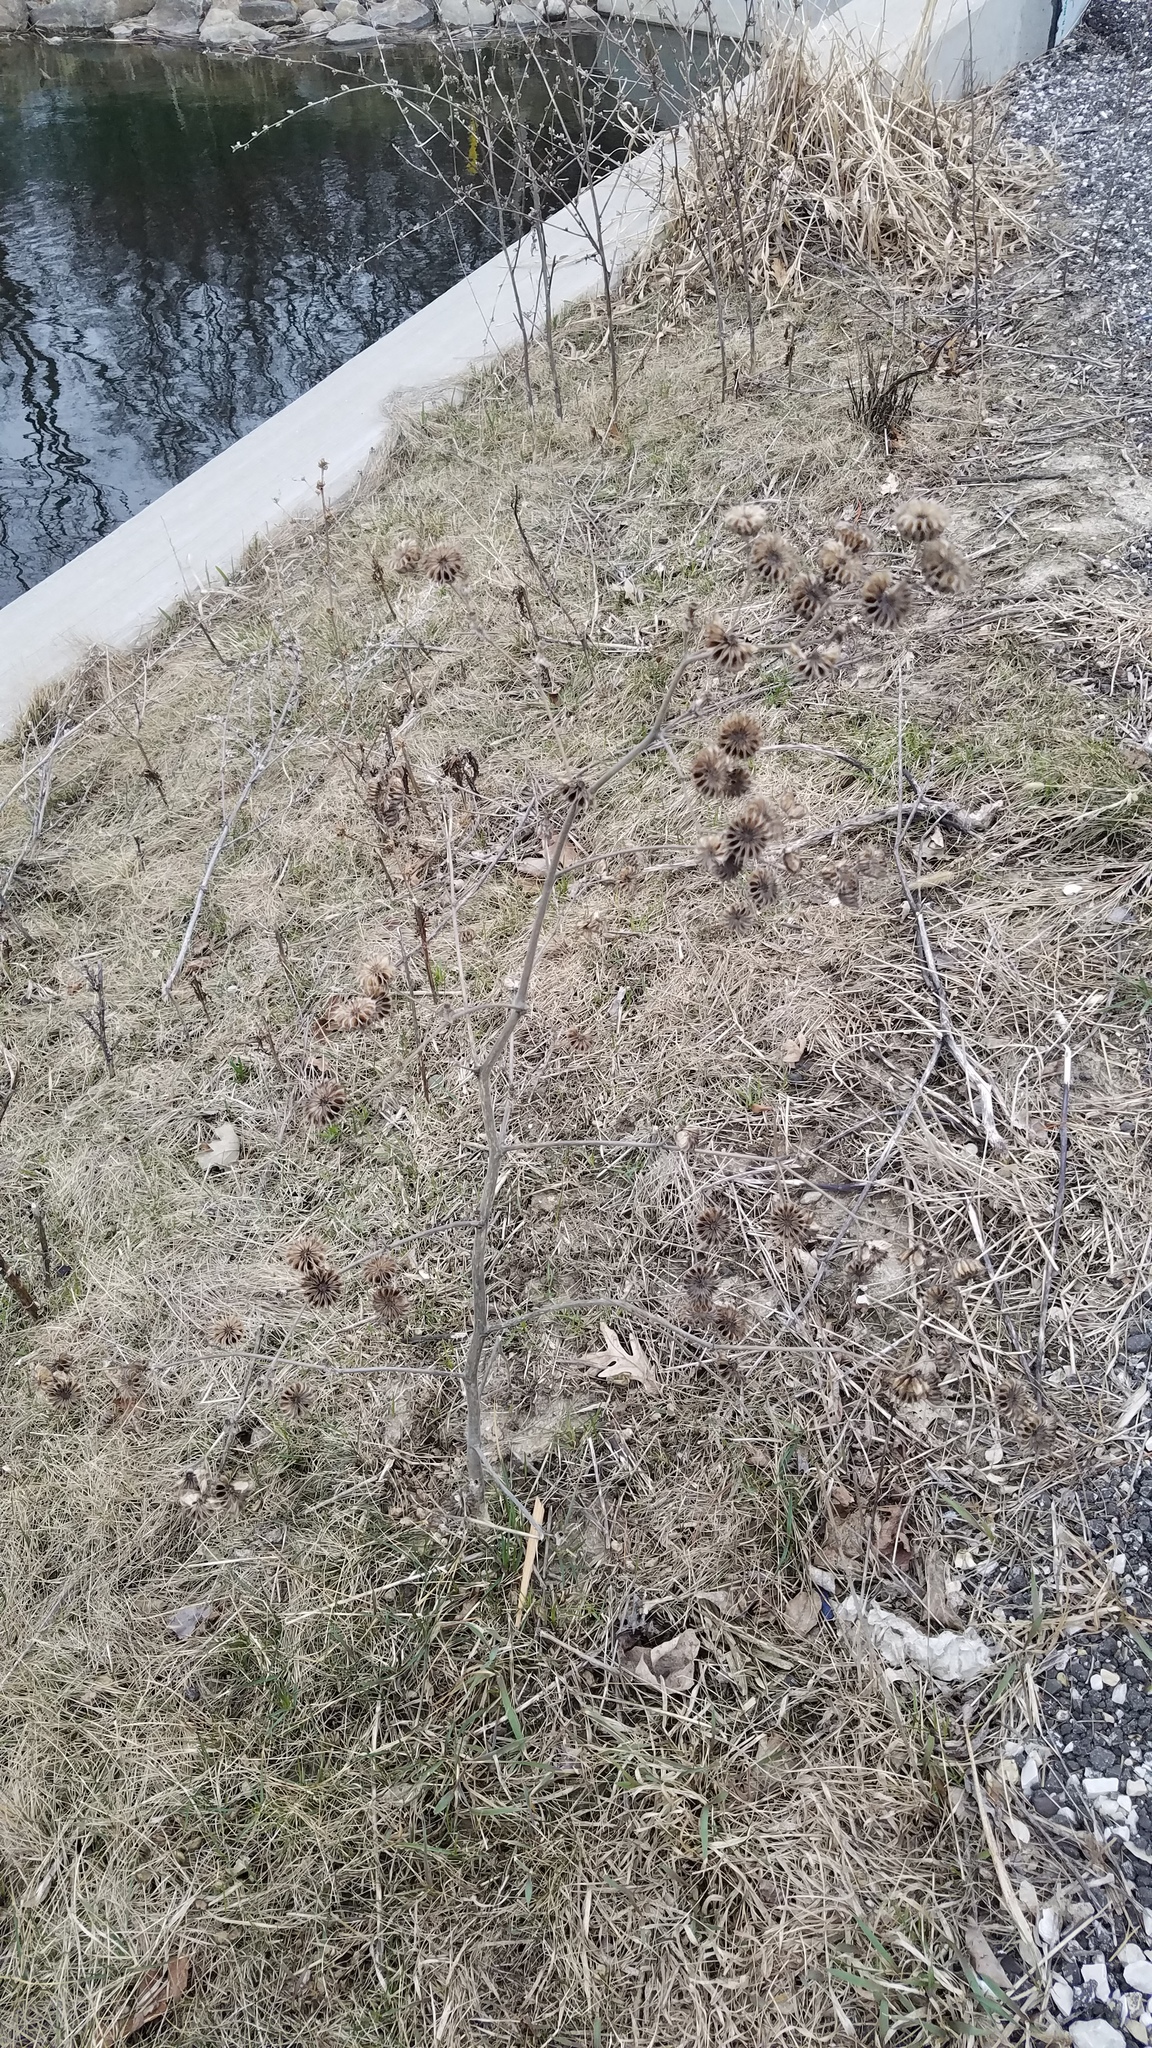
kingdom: Plantae
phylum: Tracheophyta
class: Magnoliopsida
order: Malvales
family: Malvaceae
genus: Abutilon
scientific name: Abutilon theophrasti
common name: Velvetleaf
